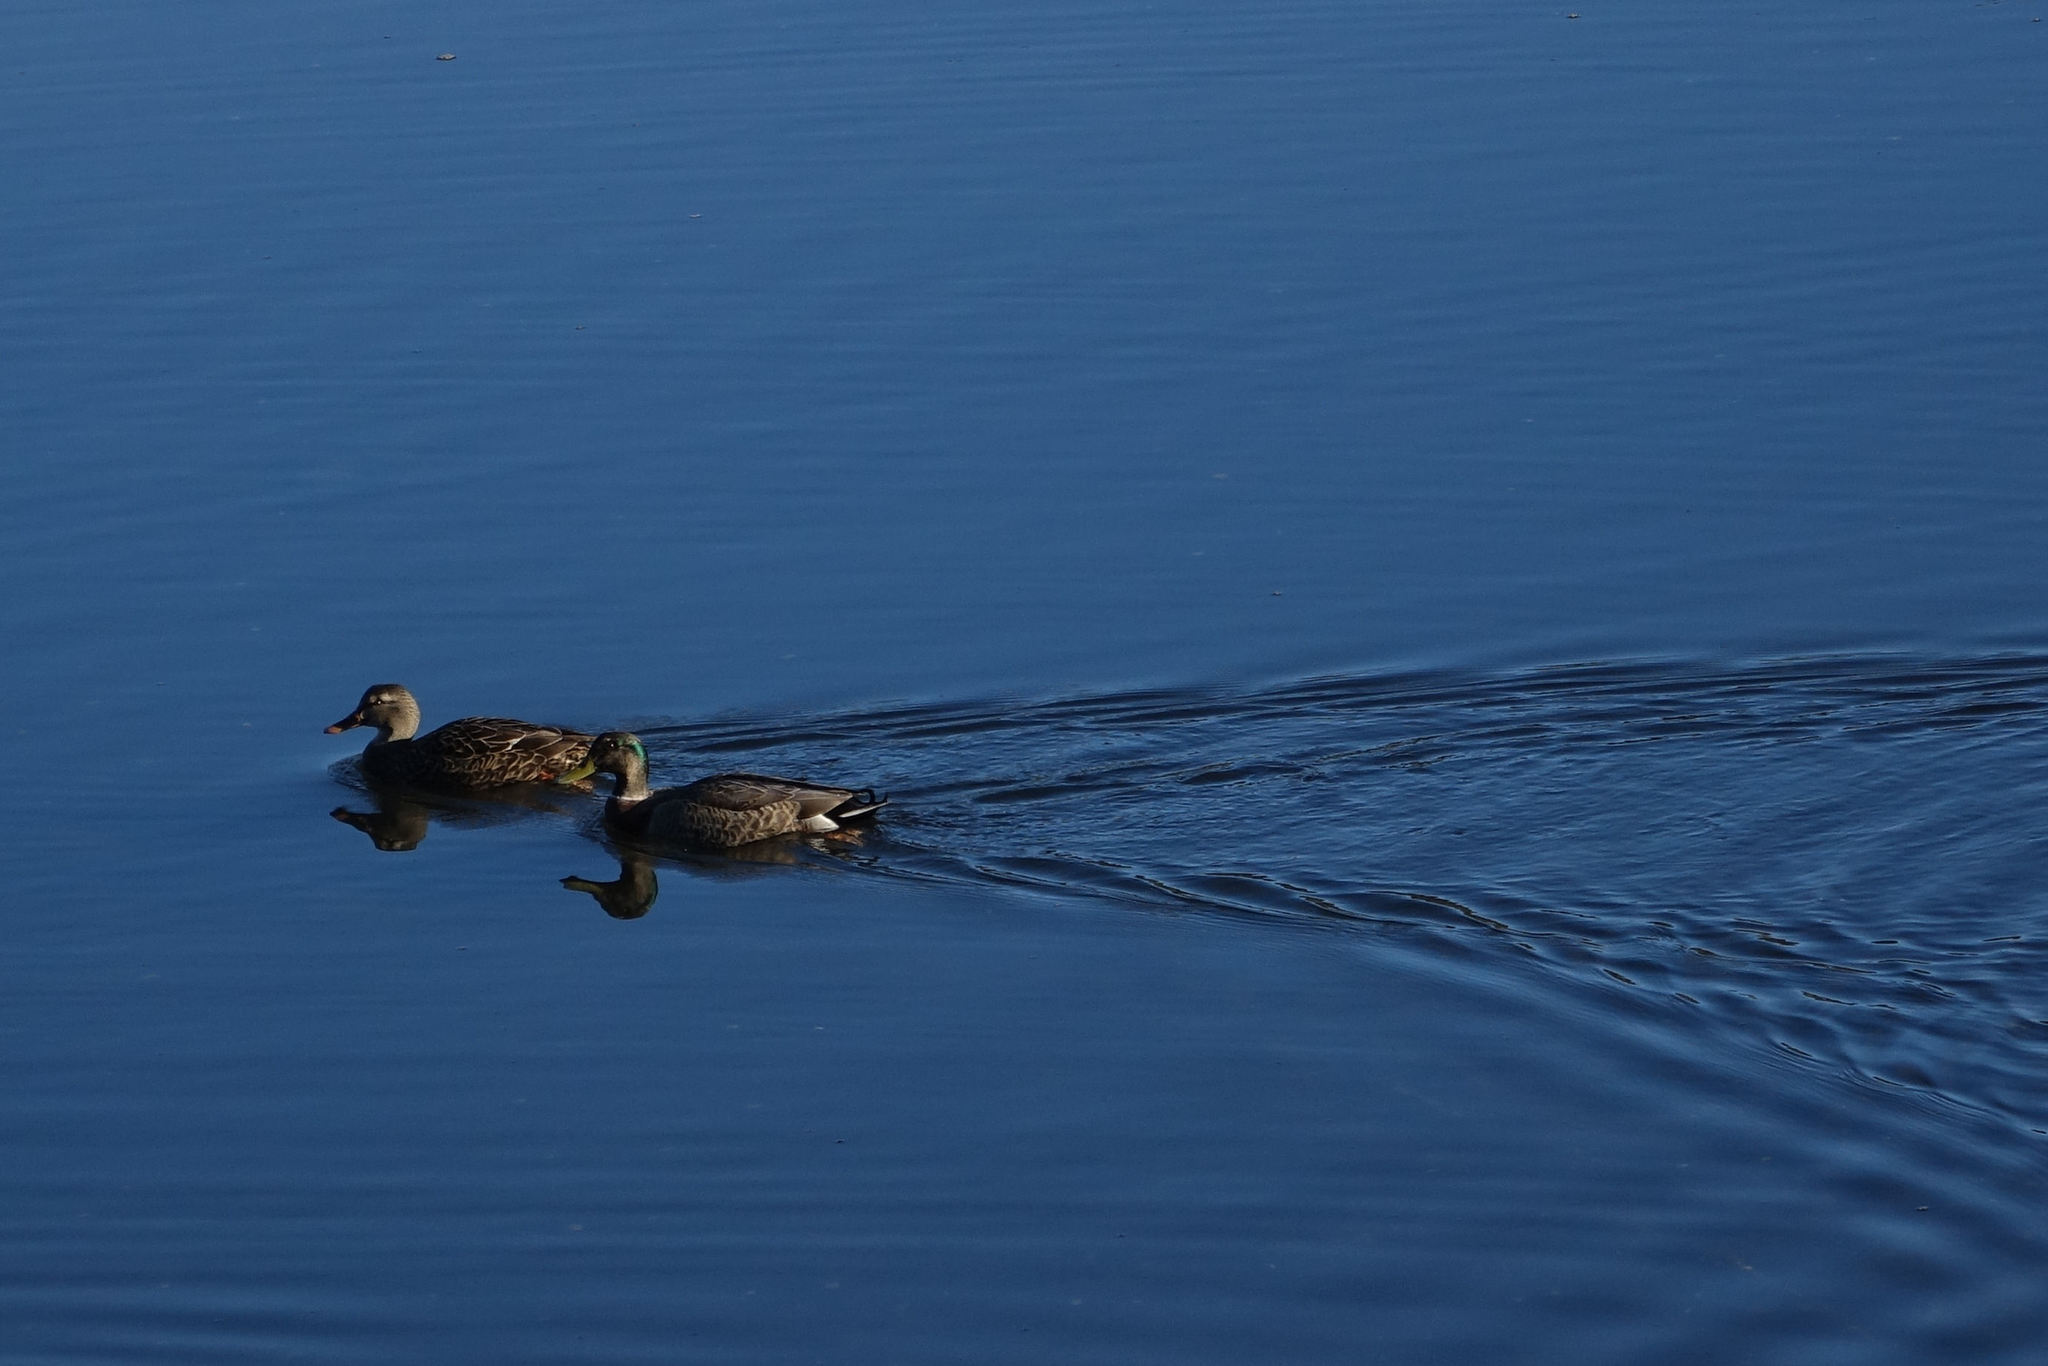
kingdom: Animalia
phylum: Chordata
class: Aves
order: Anseriformes
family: Anatidae
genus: Anas
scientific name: Anas
